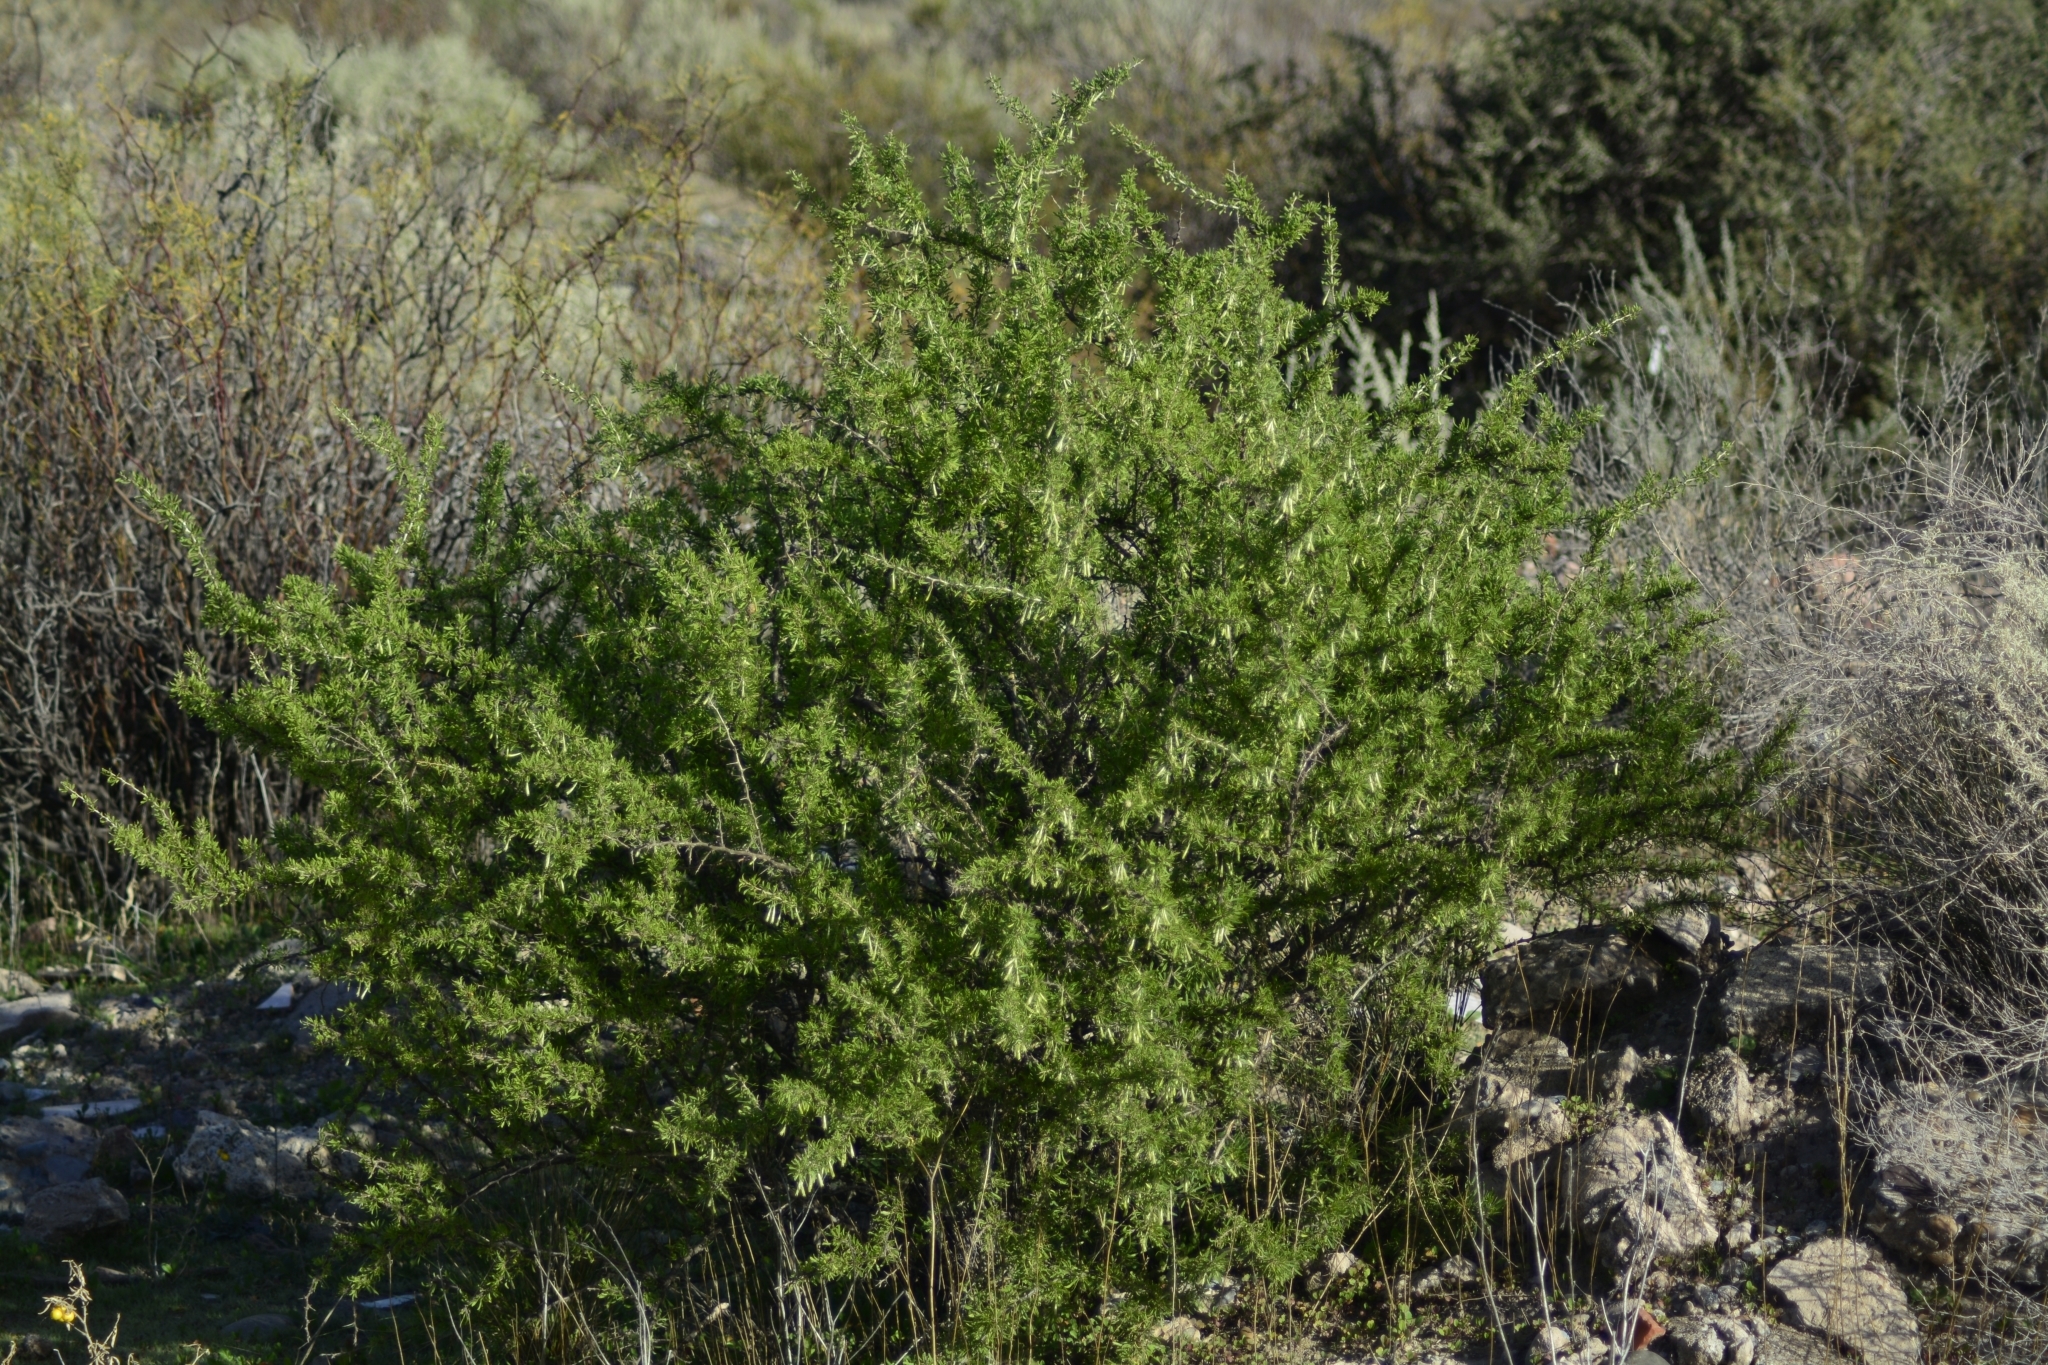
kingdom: Plantae
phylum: Tracheophyta
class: Magnoliopsida
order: Solanales
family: Solanaceae
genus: Lycium
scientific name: Lycium gilliesianum
